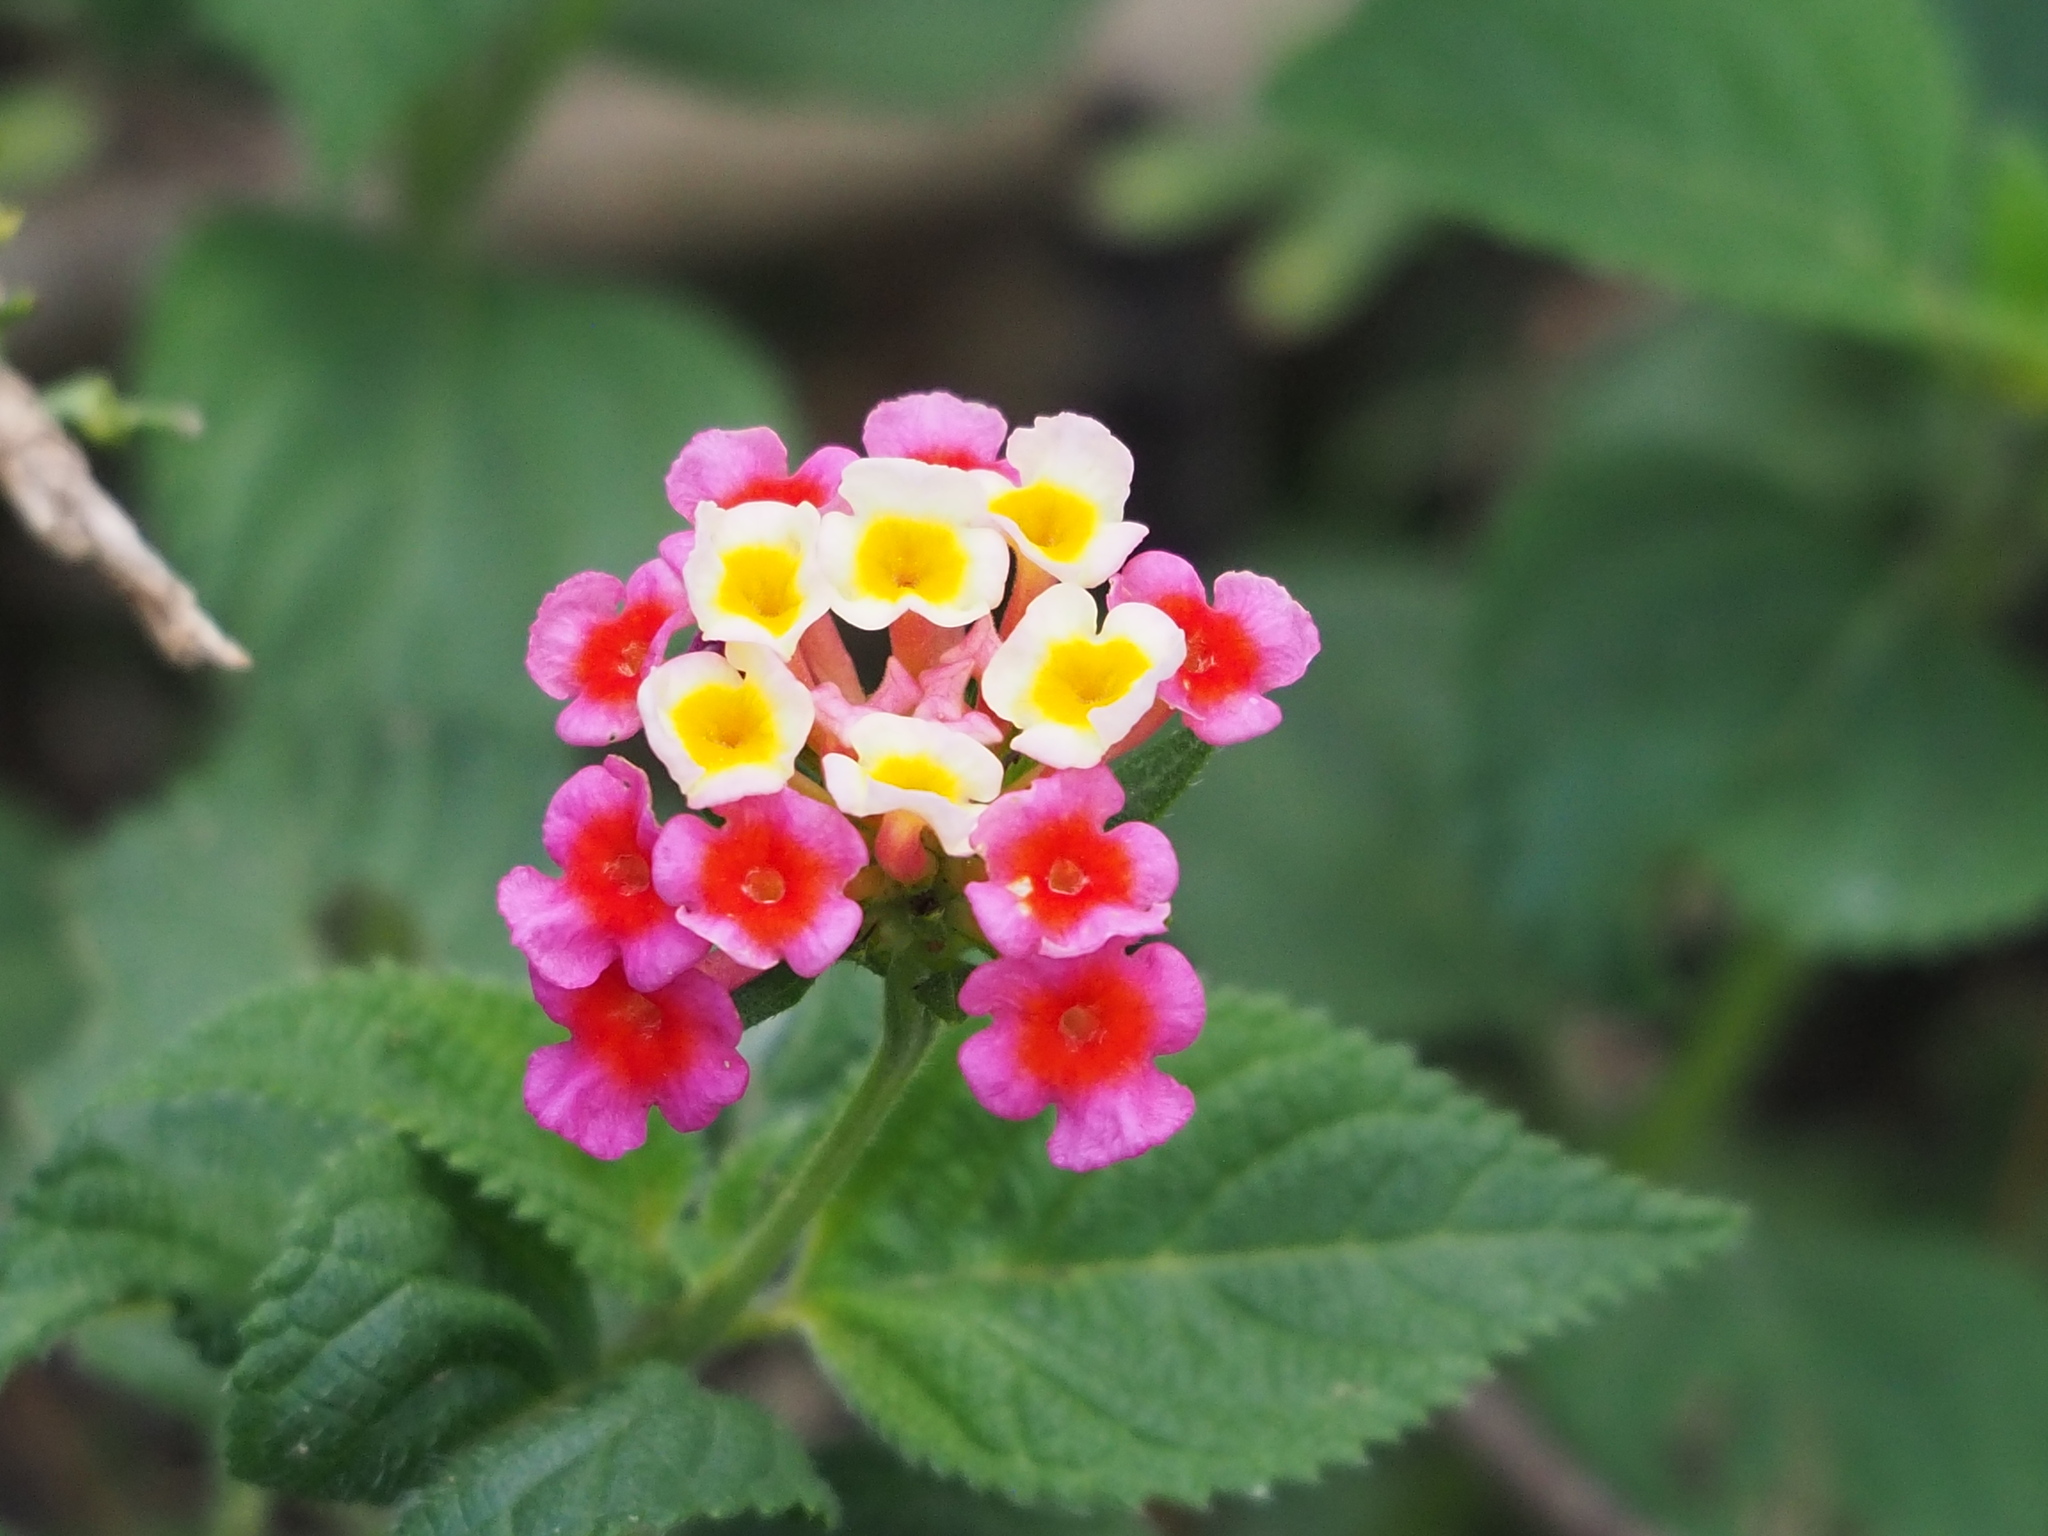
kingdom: Plantae
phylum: Tracheophyta
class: Magnoliopsida
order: Lamiales
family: Verbenaceae
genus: Lantana
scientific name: Lantana camara
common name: Lantana
